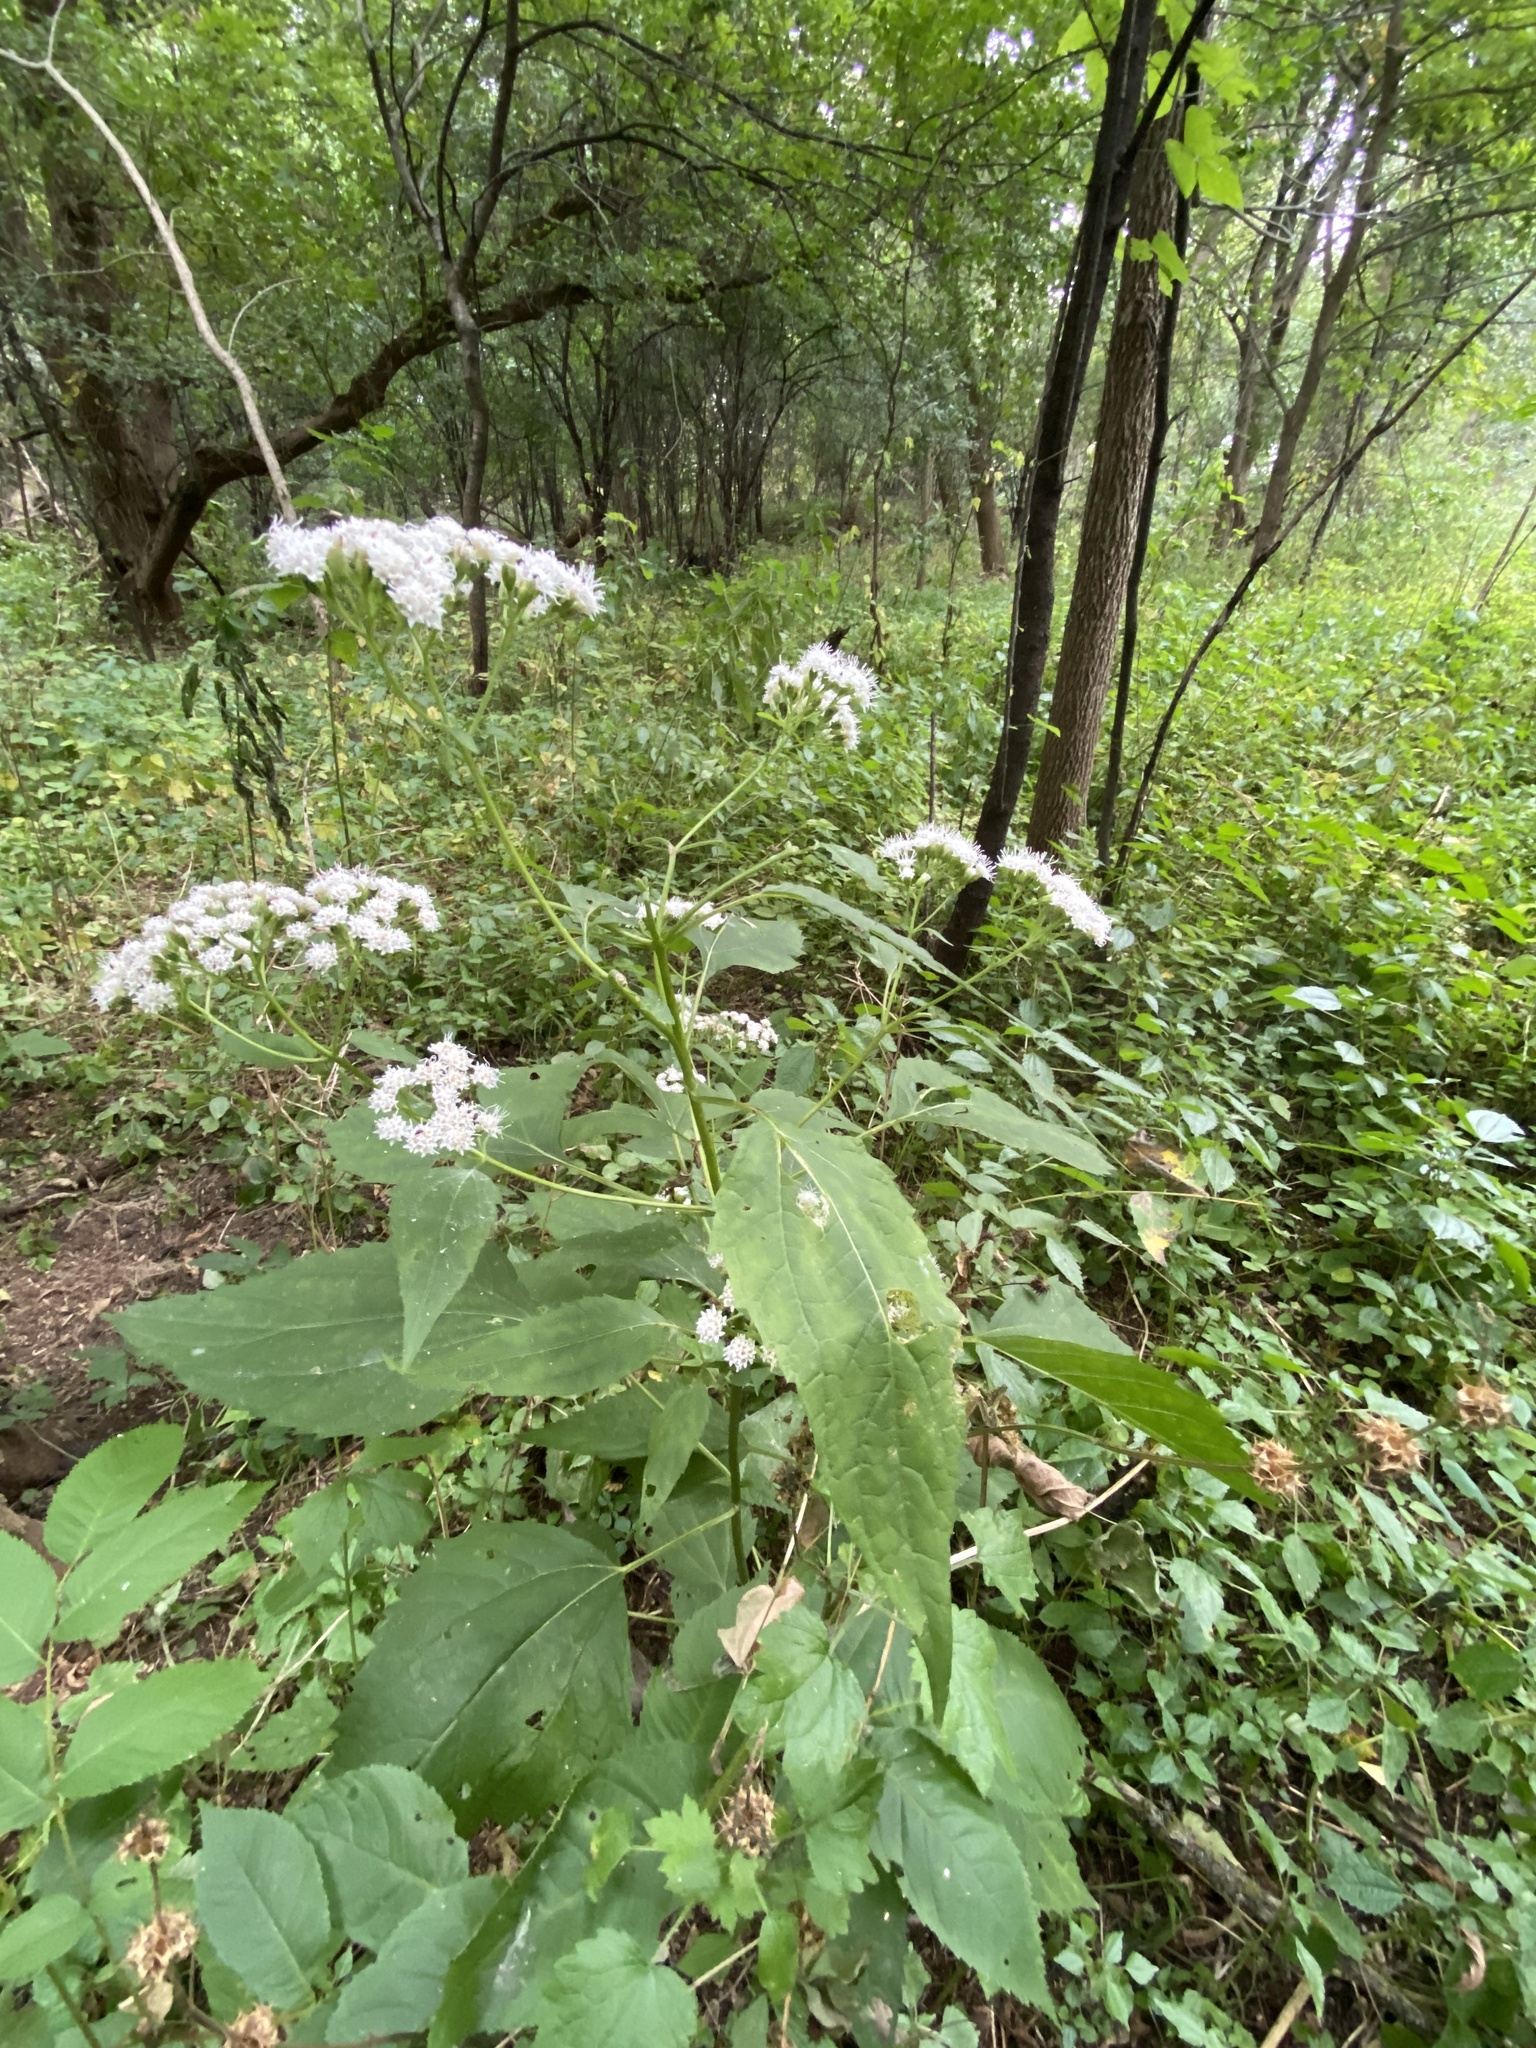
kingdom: Plantae
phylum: Tracheophyta
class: Magnoliopsida
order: Asterales
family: Asteraceae
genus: Ageratina
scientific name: Ageratina altissima
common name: White snakeroot
